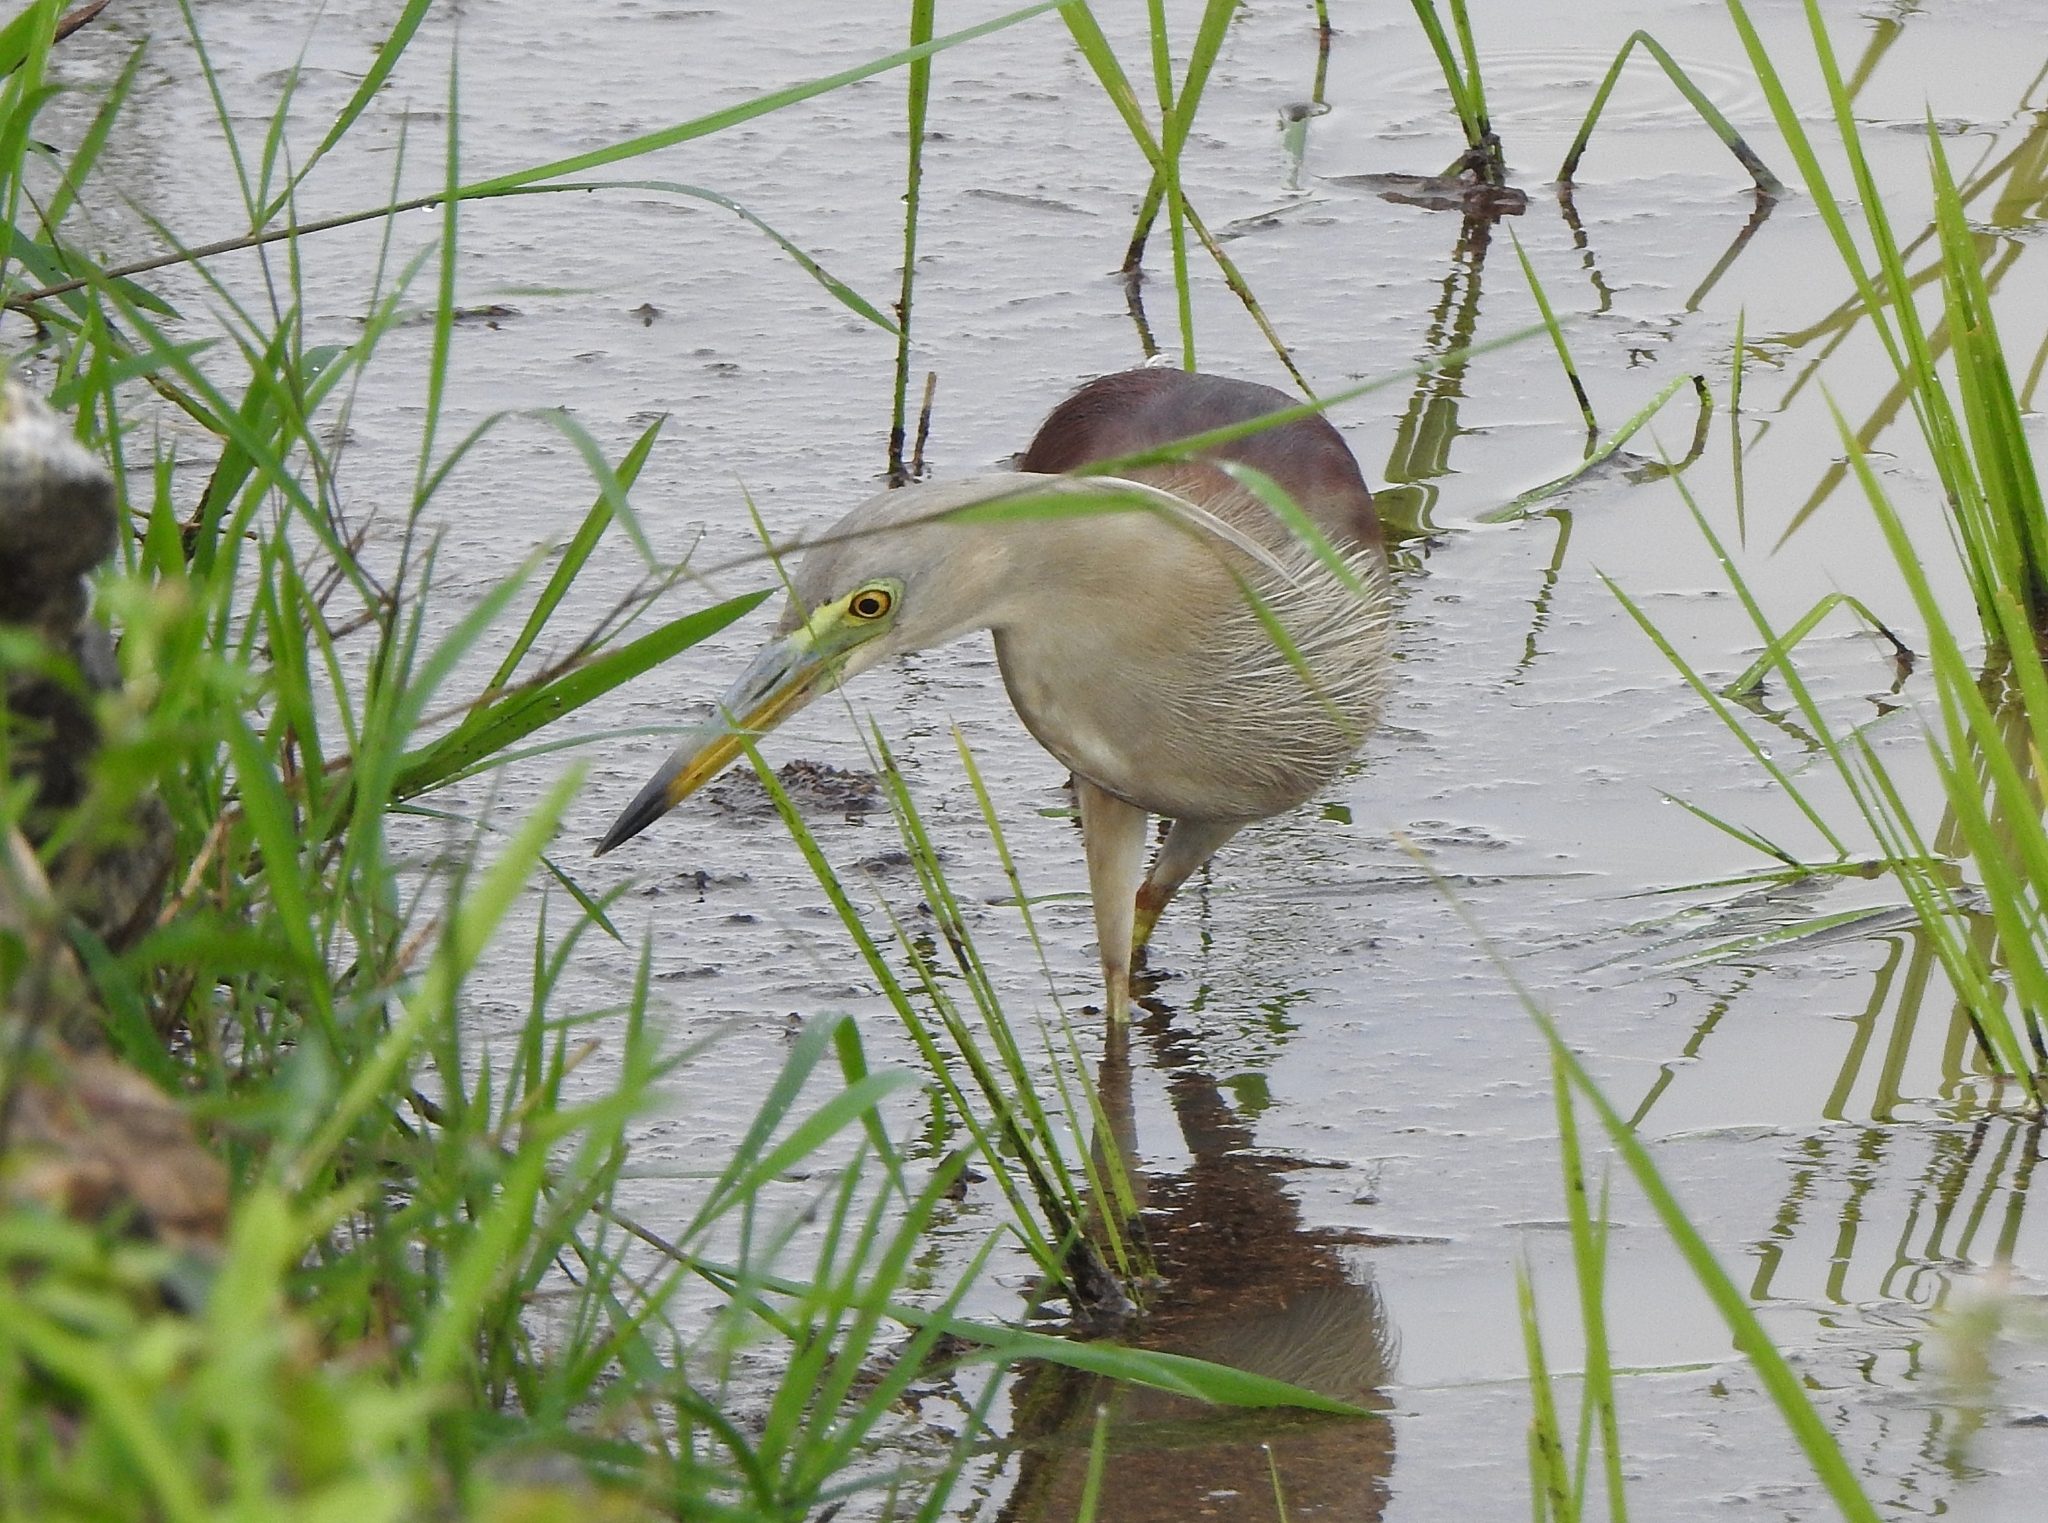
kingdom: Animalia
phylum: Chordata
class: Aves
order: Pelecaniformes
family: Ardeidae
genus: Ardeola
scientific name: Ardeola grayii
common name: Indian pond heron
